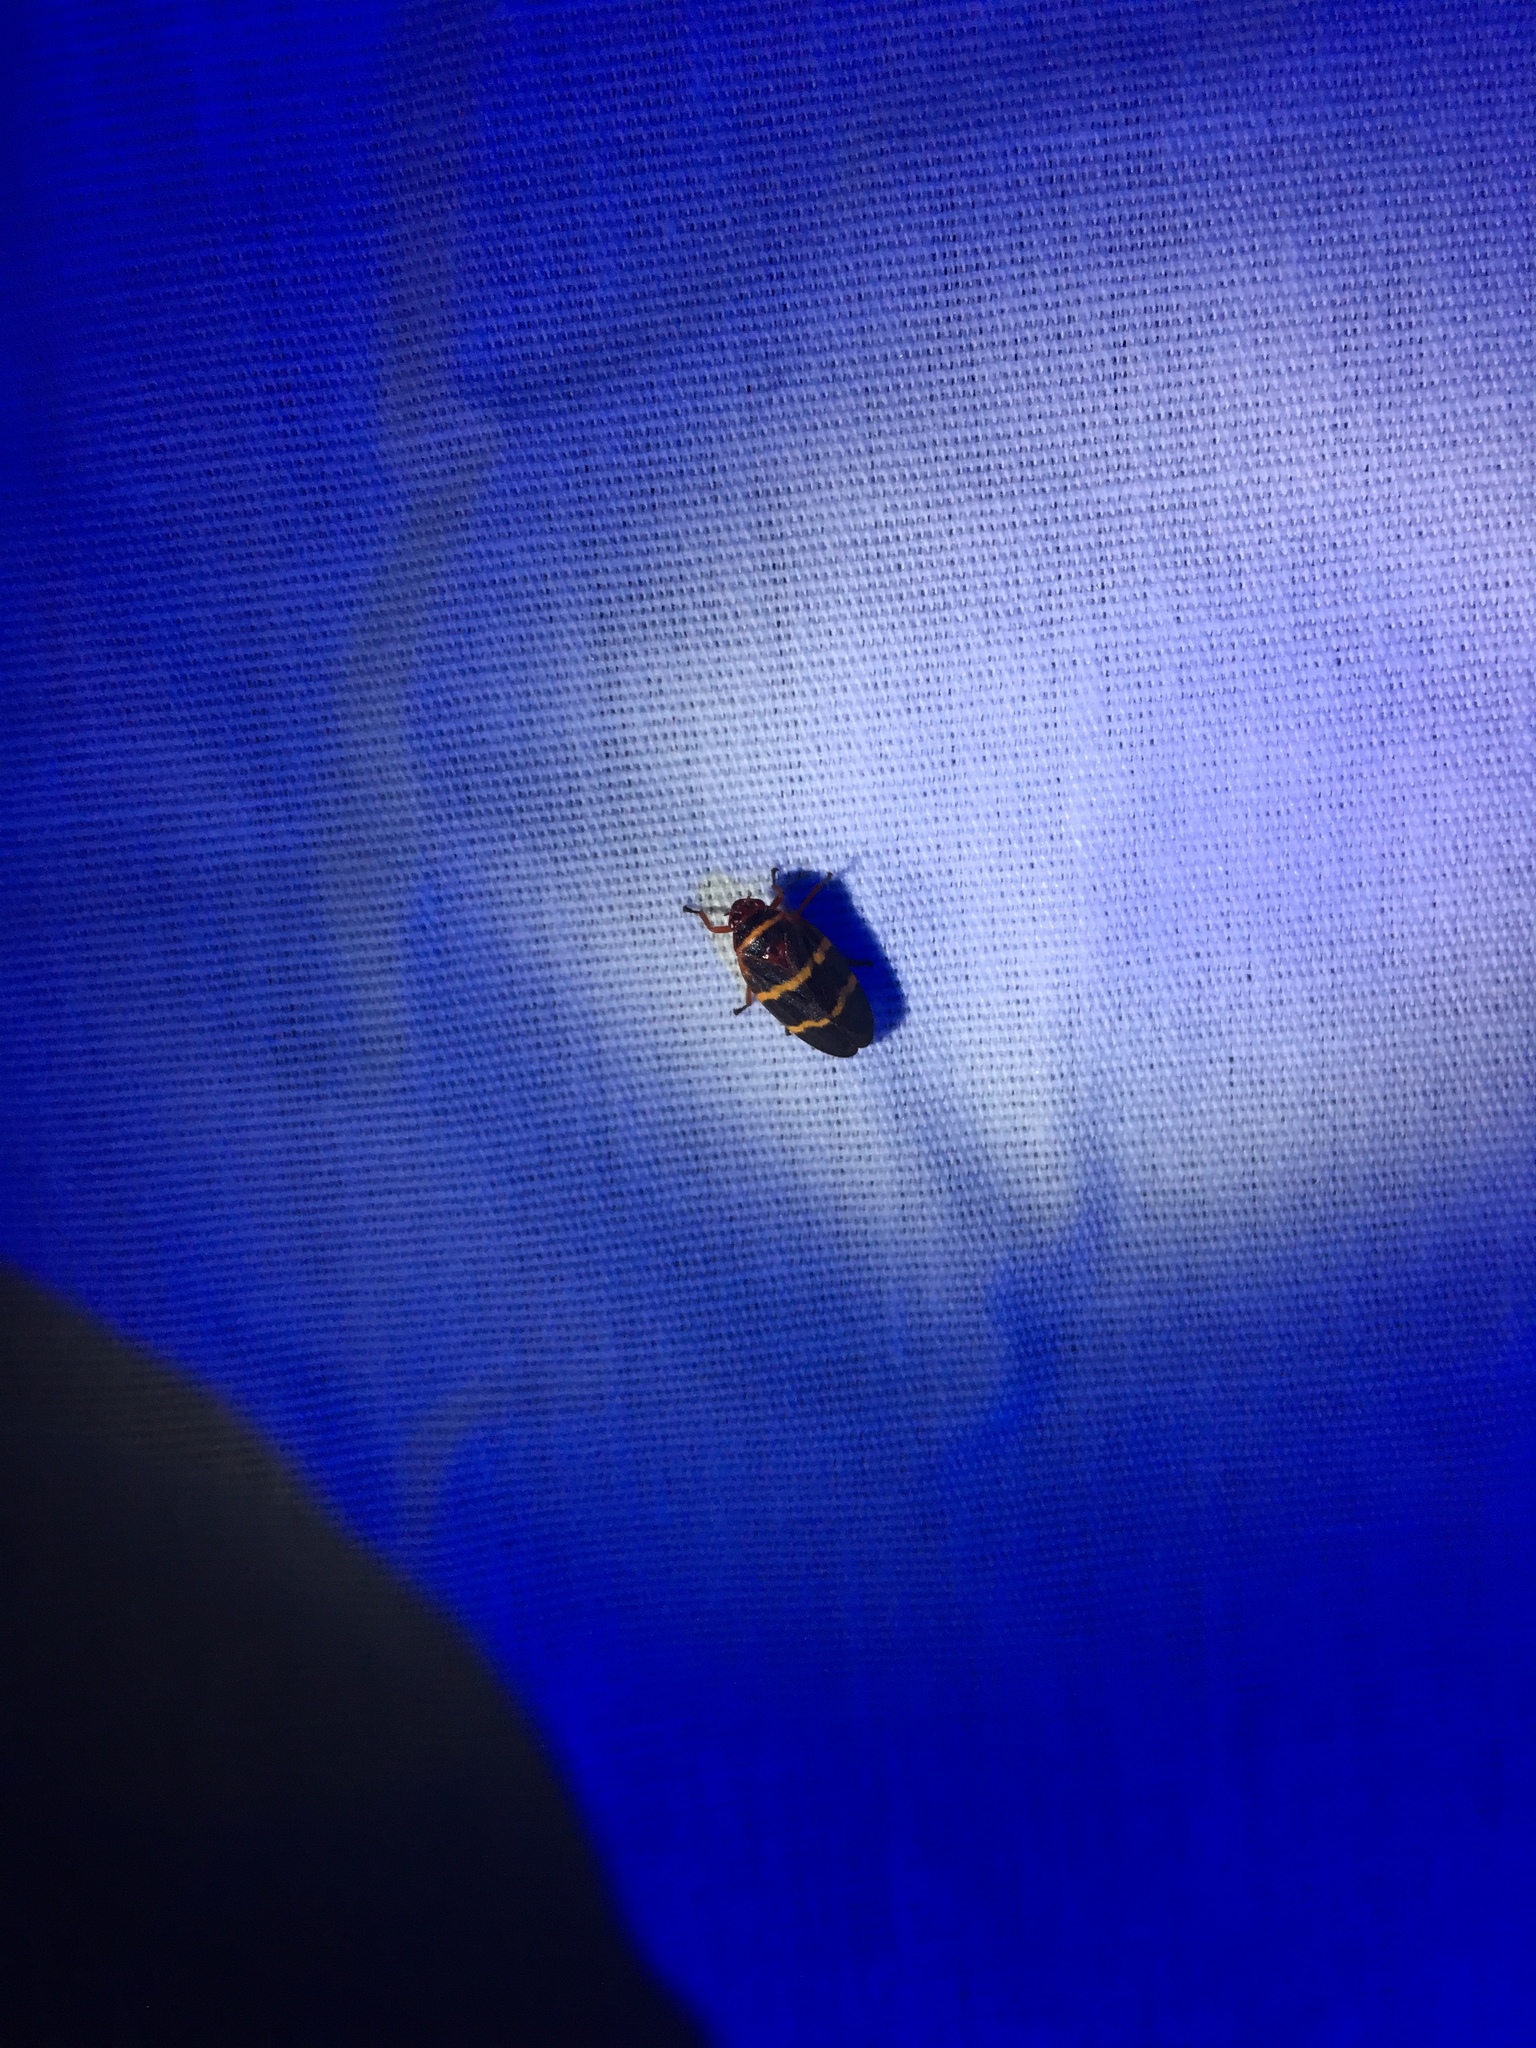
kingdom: Animalia
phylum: Arthropoda
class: Insecta
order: Hemiptera
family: Cercopidae
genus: Prosapia
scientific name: Prosapia bicincta
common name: Twolined spittlebug
